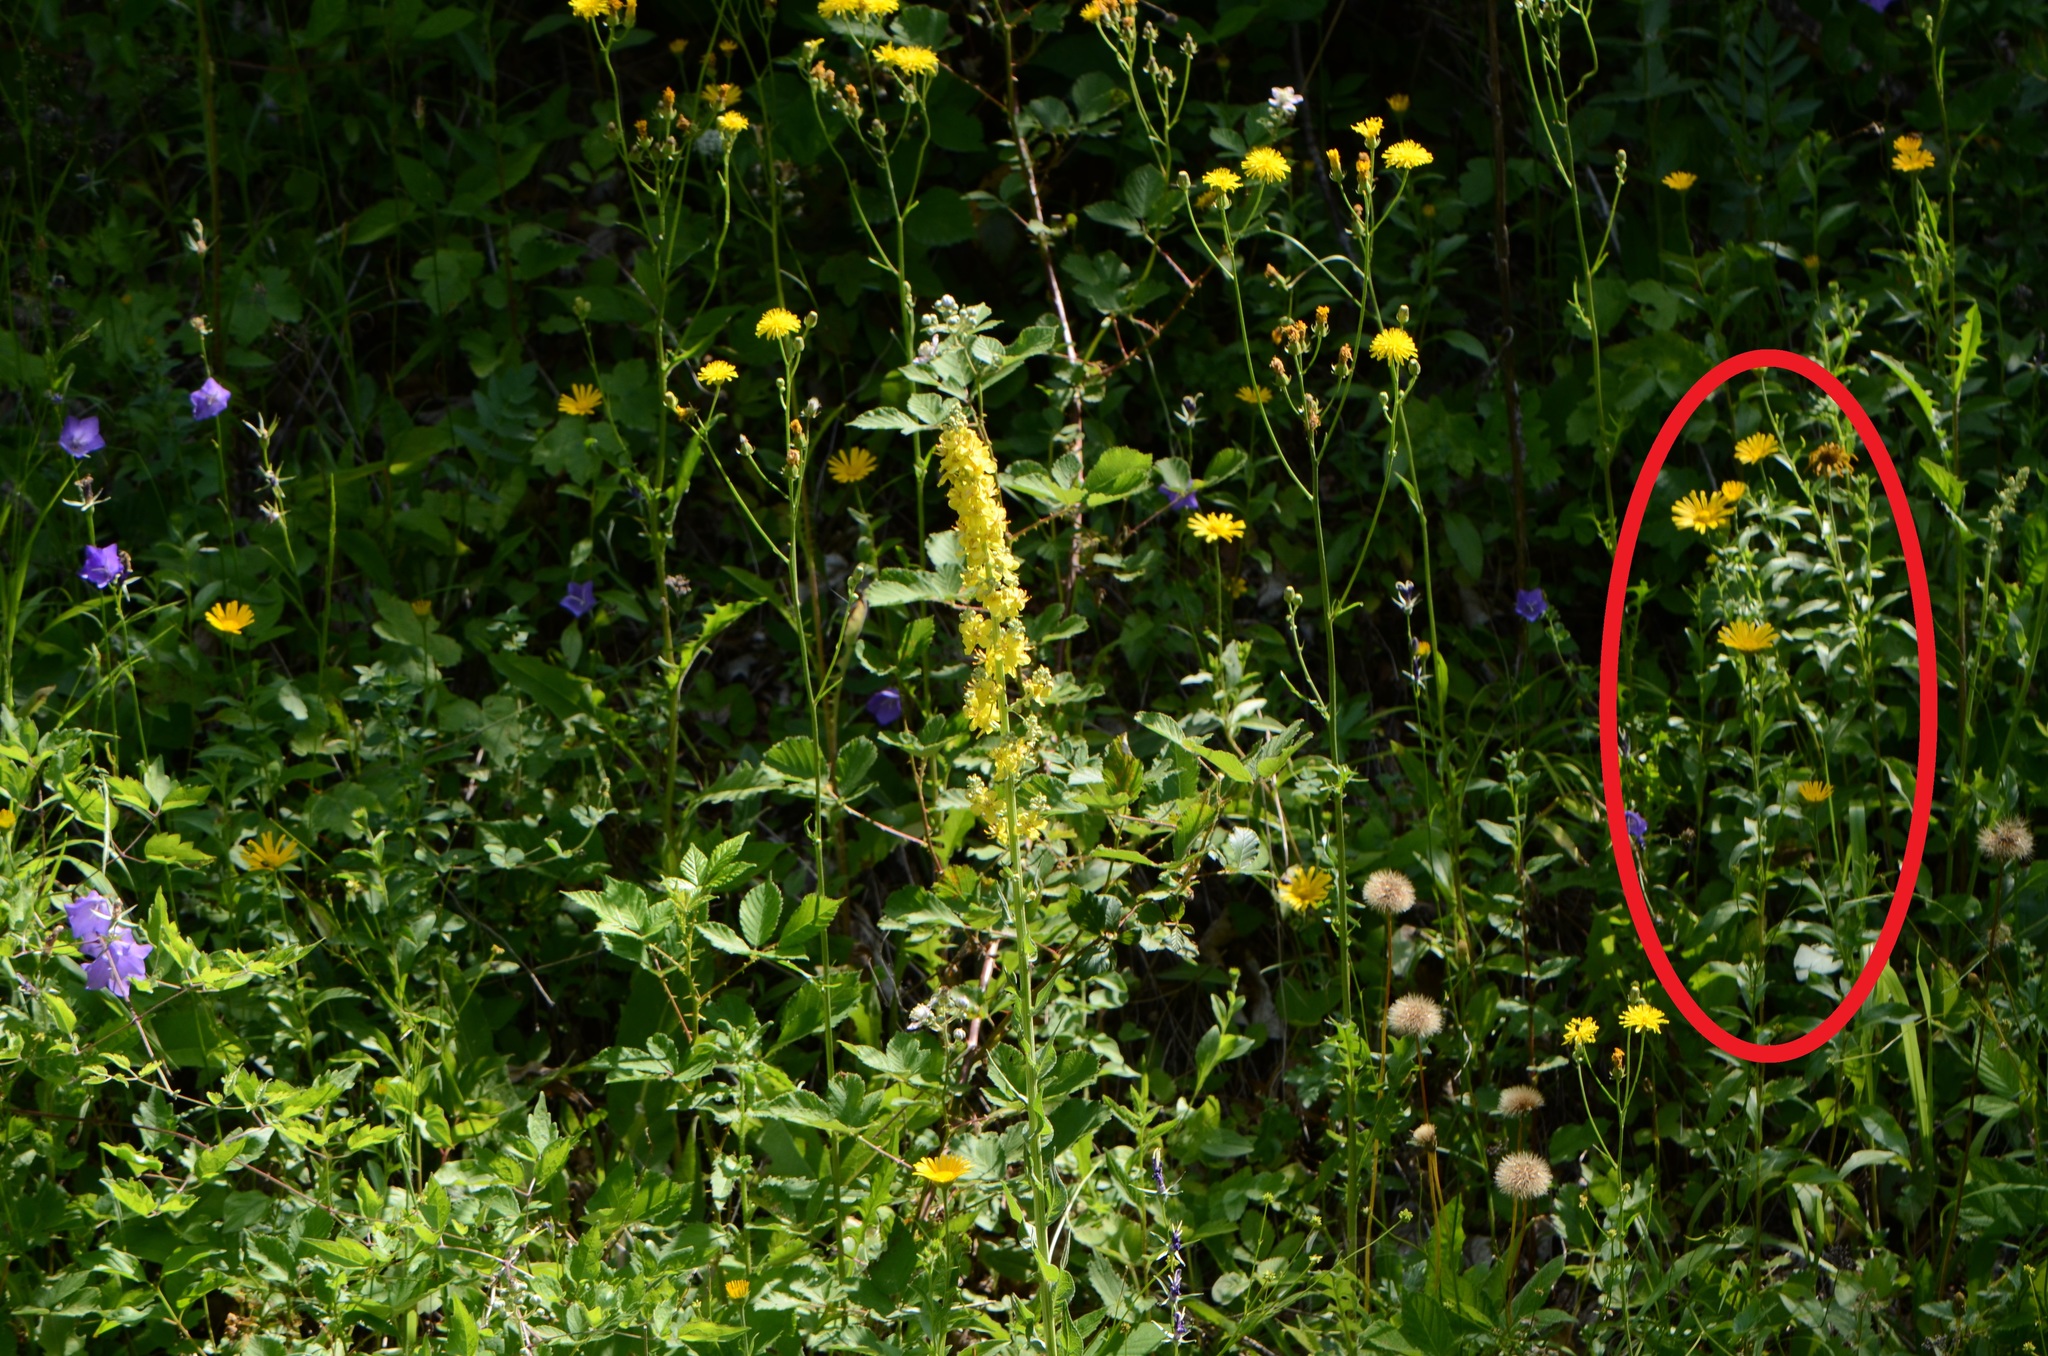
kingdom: Plantae
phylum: Tracheophyta
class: Magnoliopsida
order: Asterales
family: Asteraceae
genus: Buphthalmum
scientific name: Buphthalmum salicifolium
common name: Willow-leaved yellow-oxeye
